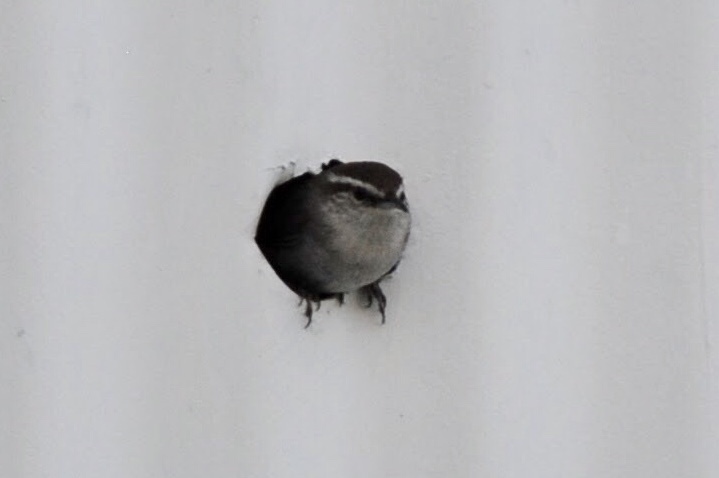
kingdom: Animalia
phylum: Chordata
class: Aves
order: Passeriformes
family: Troglodytidae
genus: Thryomanes
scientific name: Thryomanes bewickii
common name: Bewick's wren
